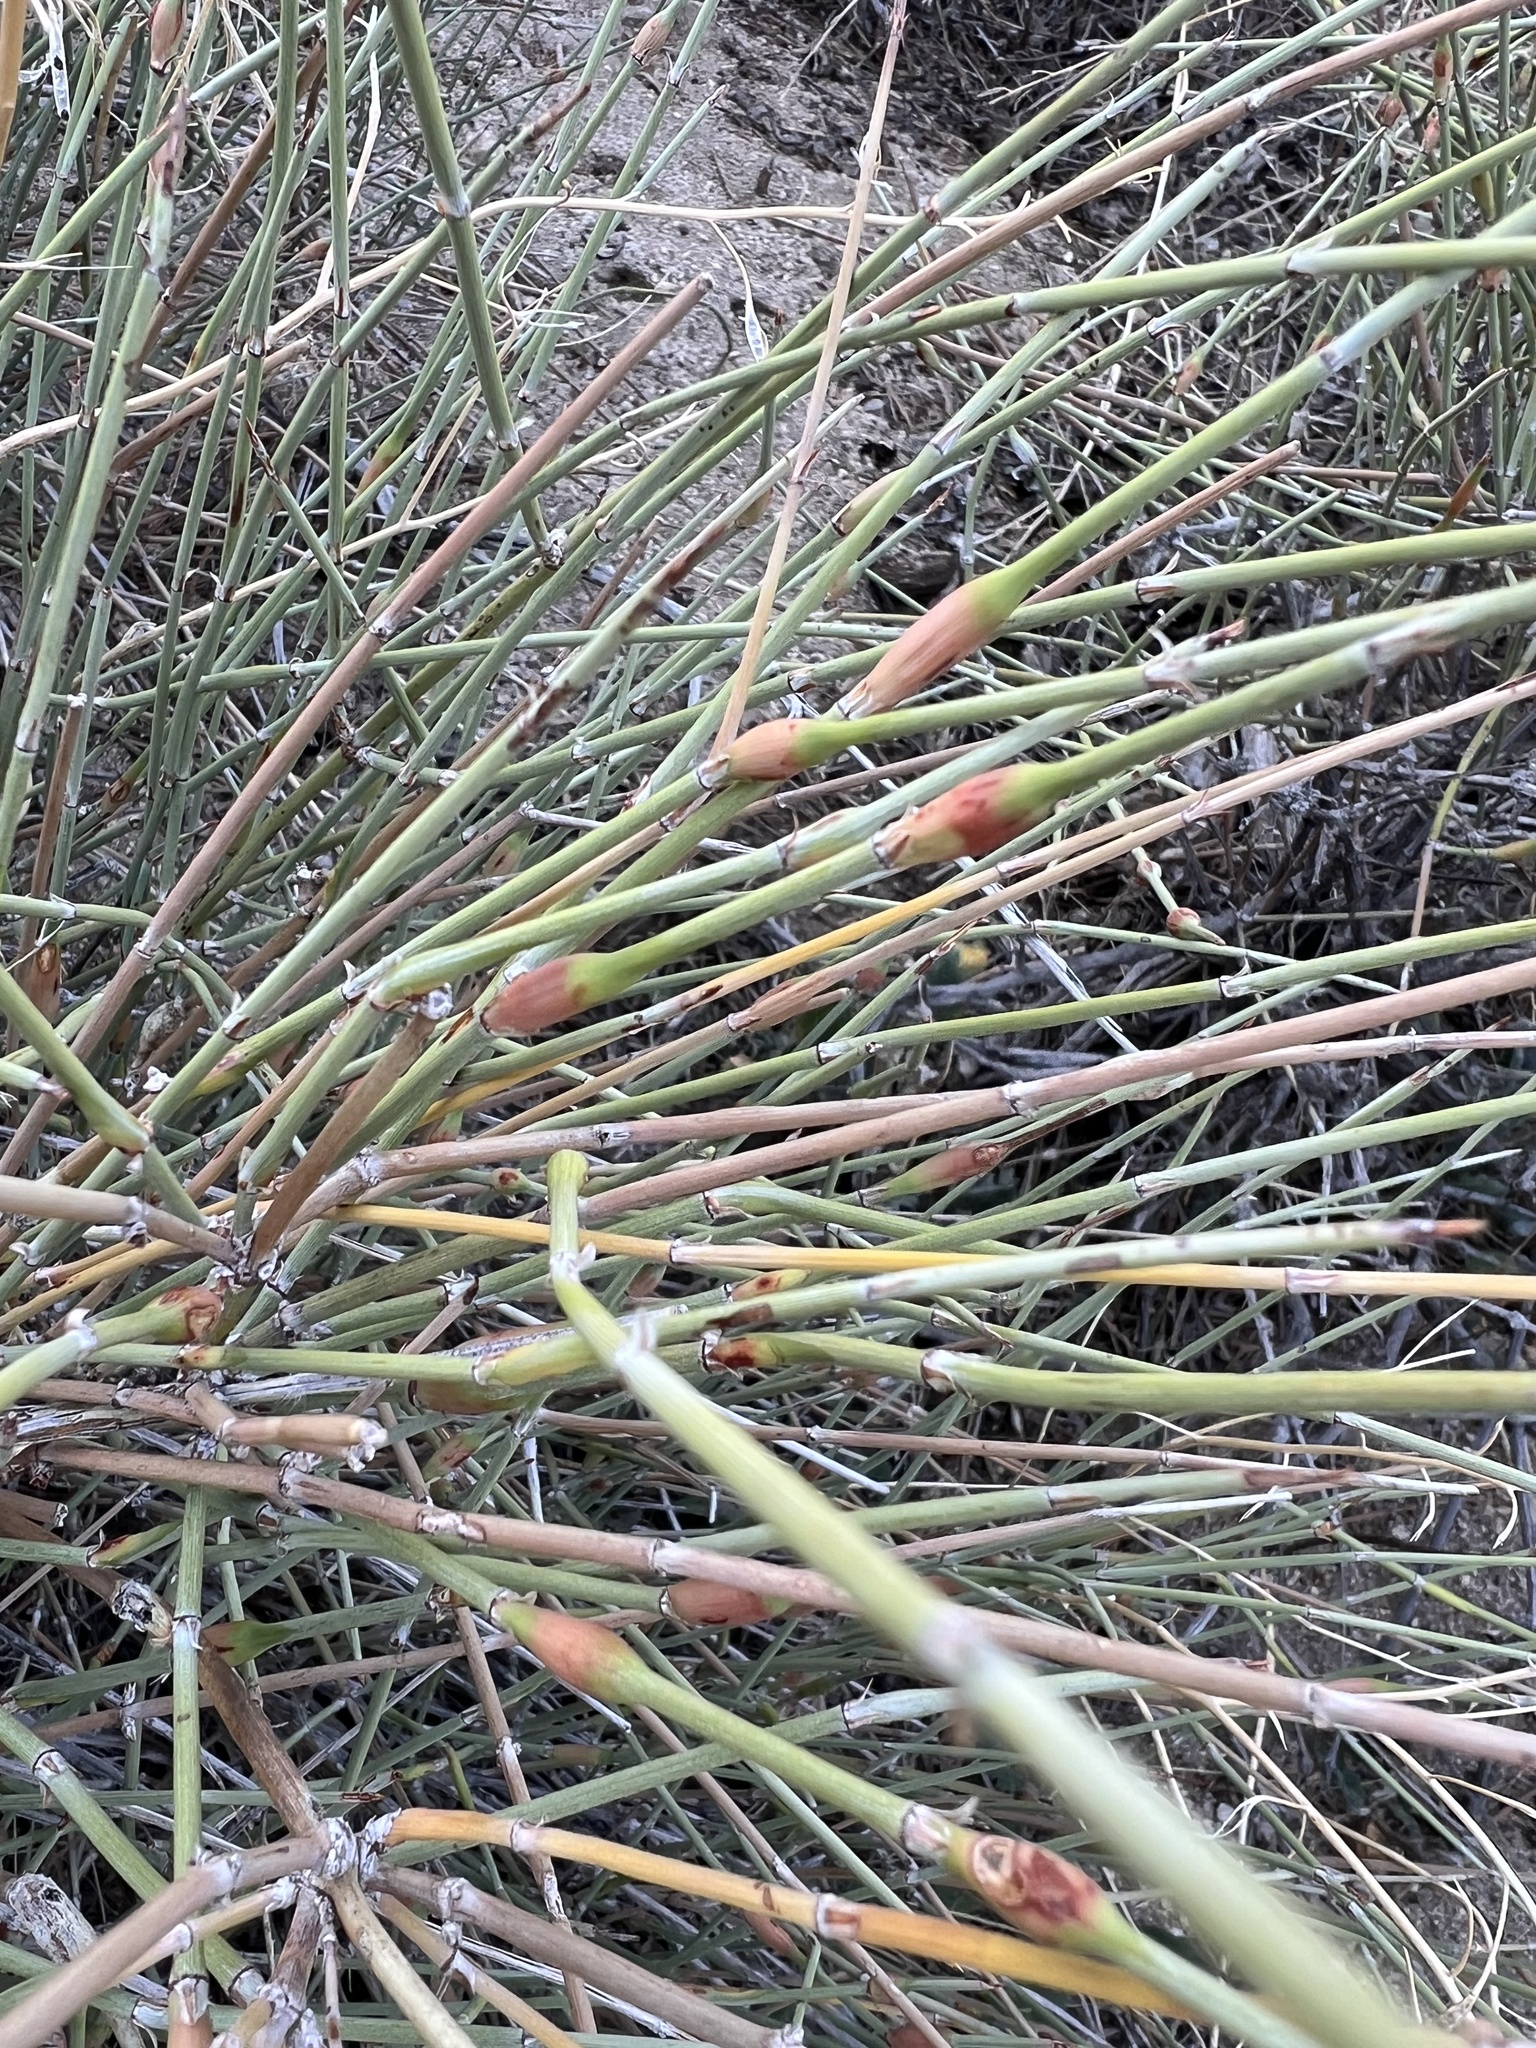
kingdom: Plantae
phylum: Tracheophyta
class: Gnetopsida
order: Ephedrales
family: Ephedraceae
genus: Ephedra
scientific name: Ephedra californica
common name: California ephedra
